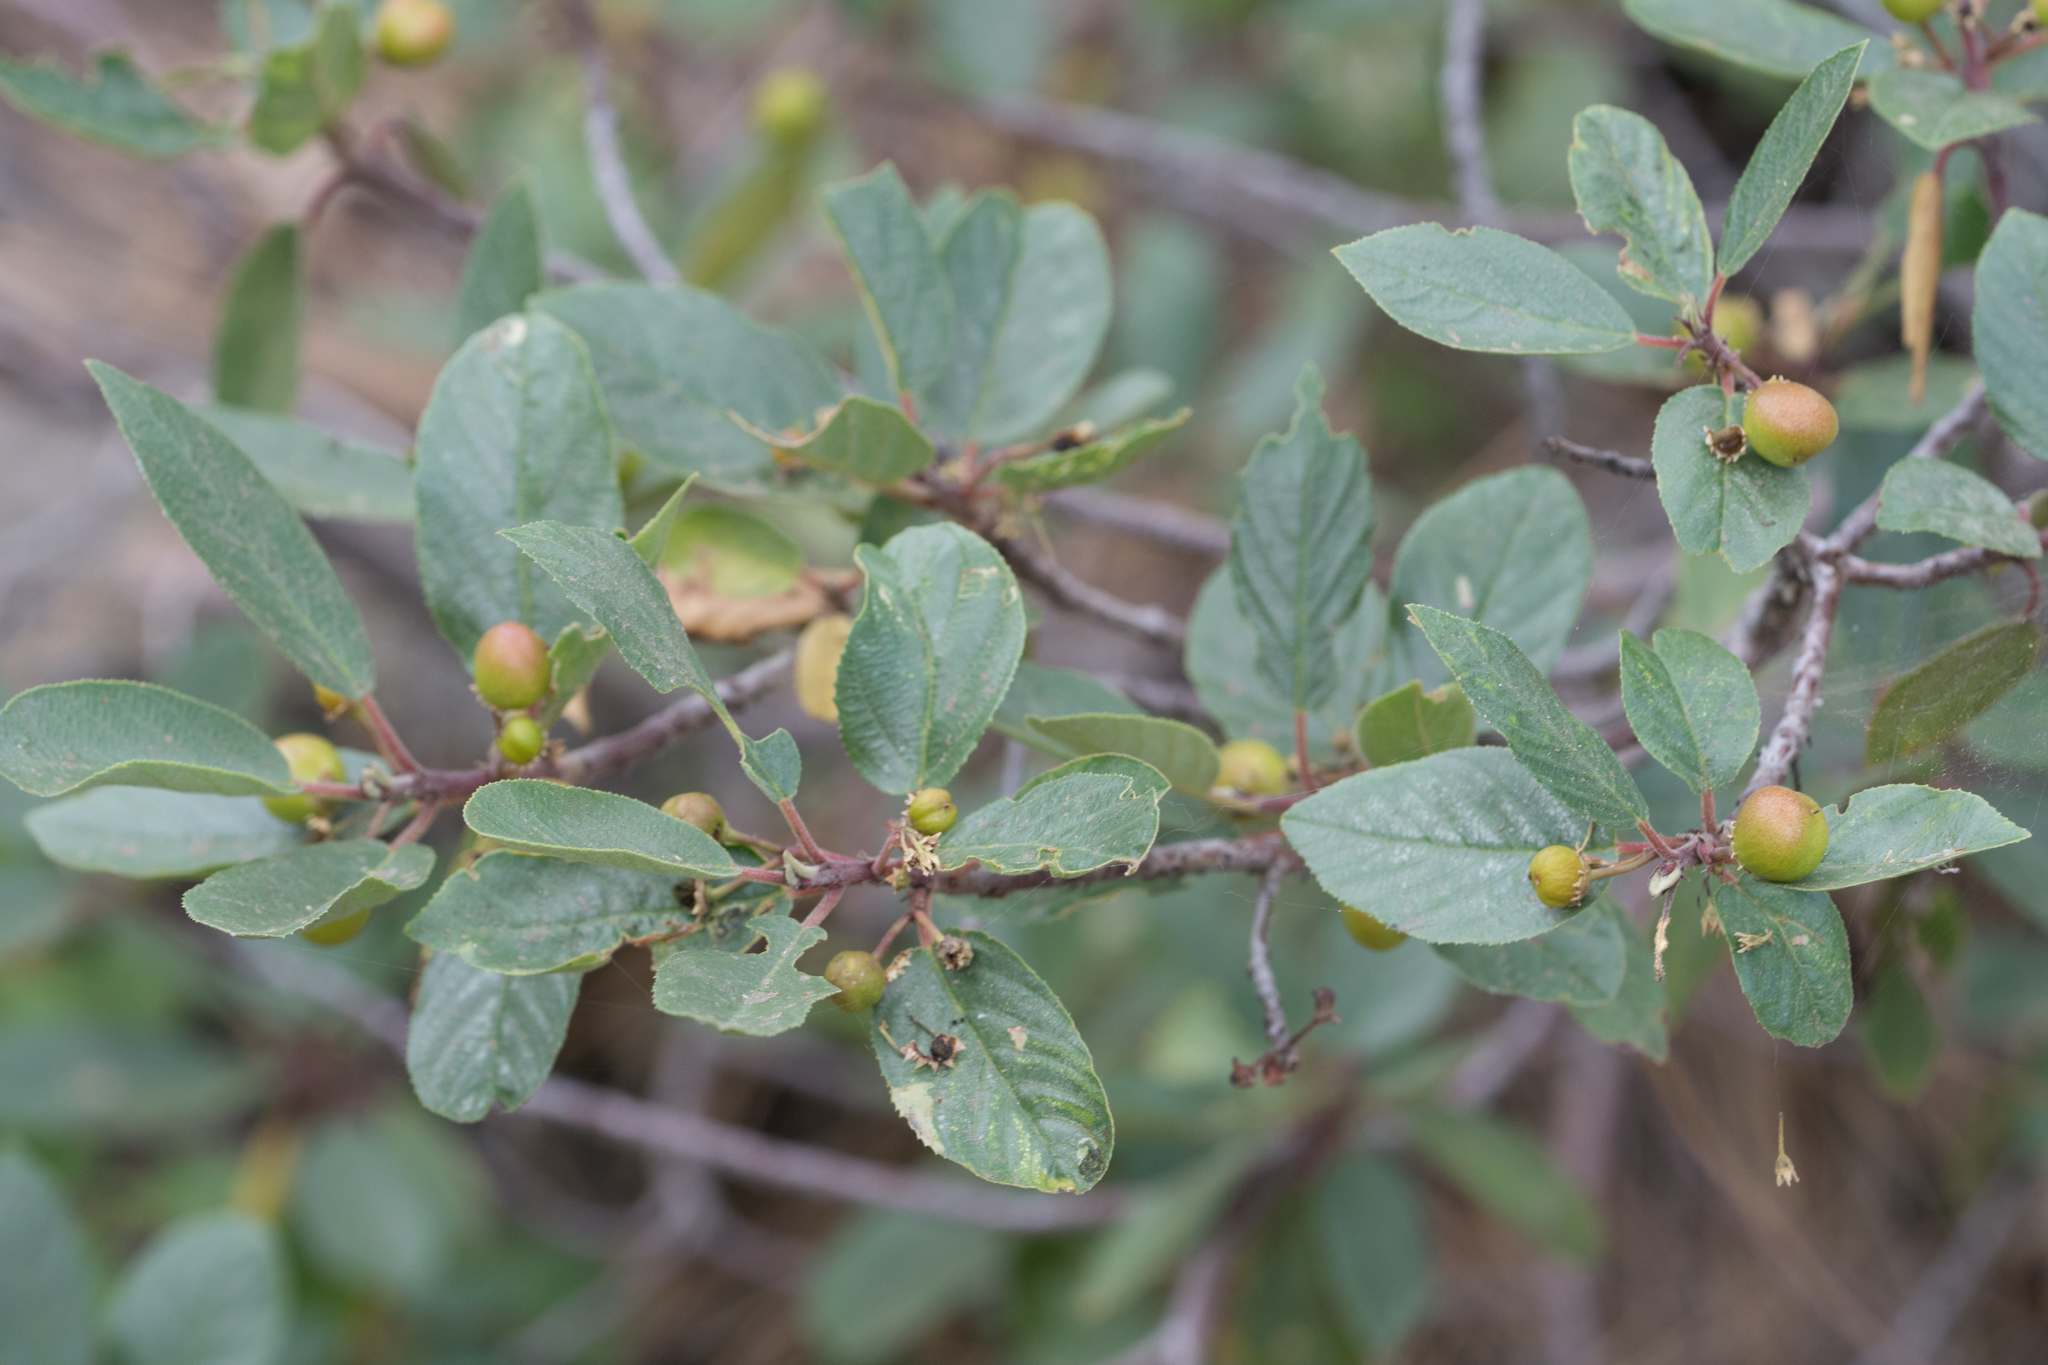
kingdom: Plantae
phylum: Tracheophyta
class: Magnoliopsida
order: Rosales
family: Rhamnaceae
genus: Frangula
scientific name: Frangula californica
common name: California buckthorn
